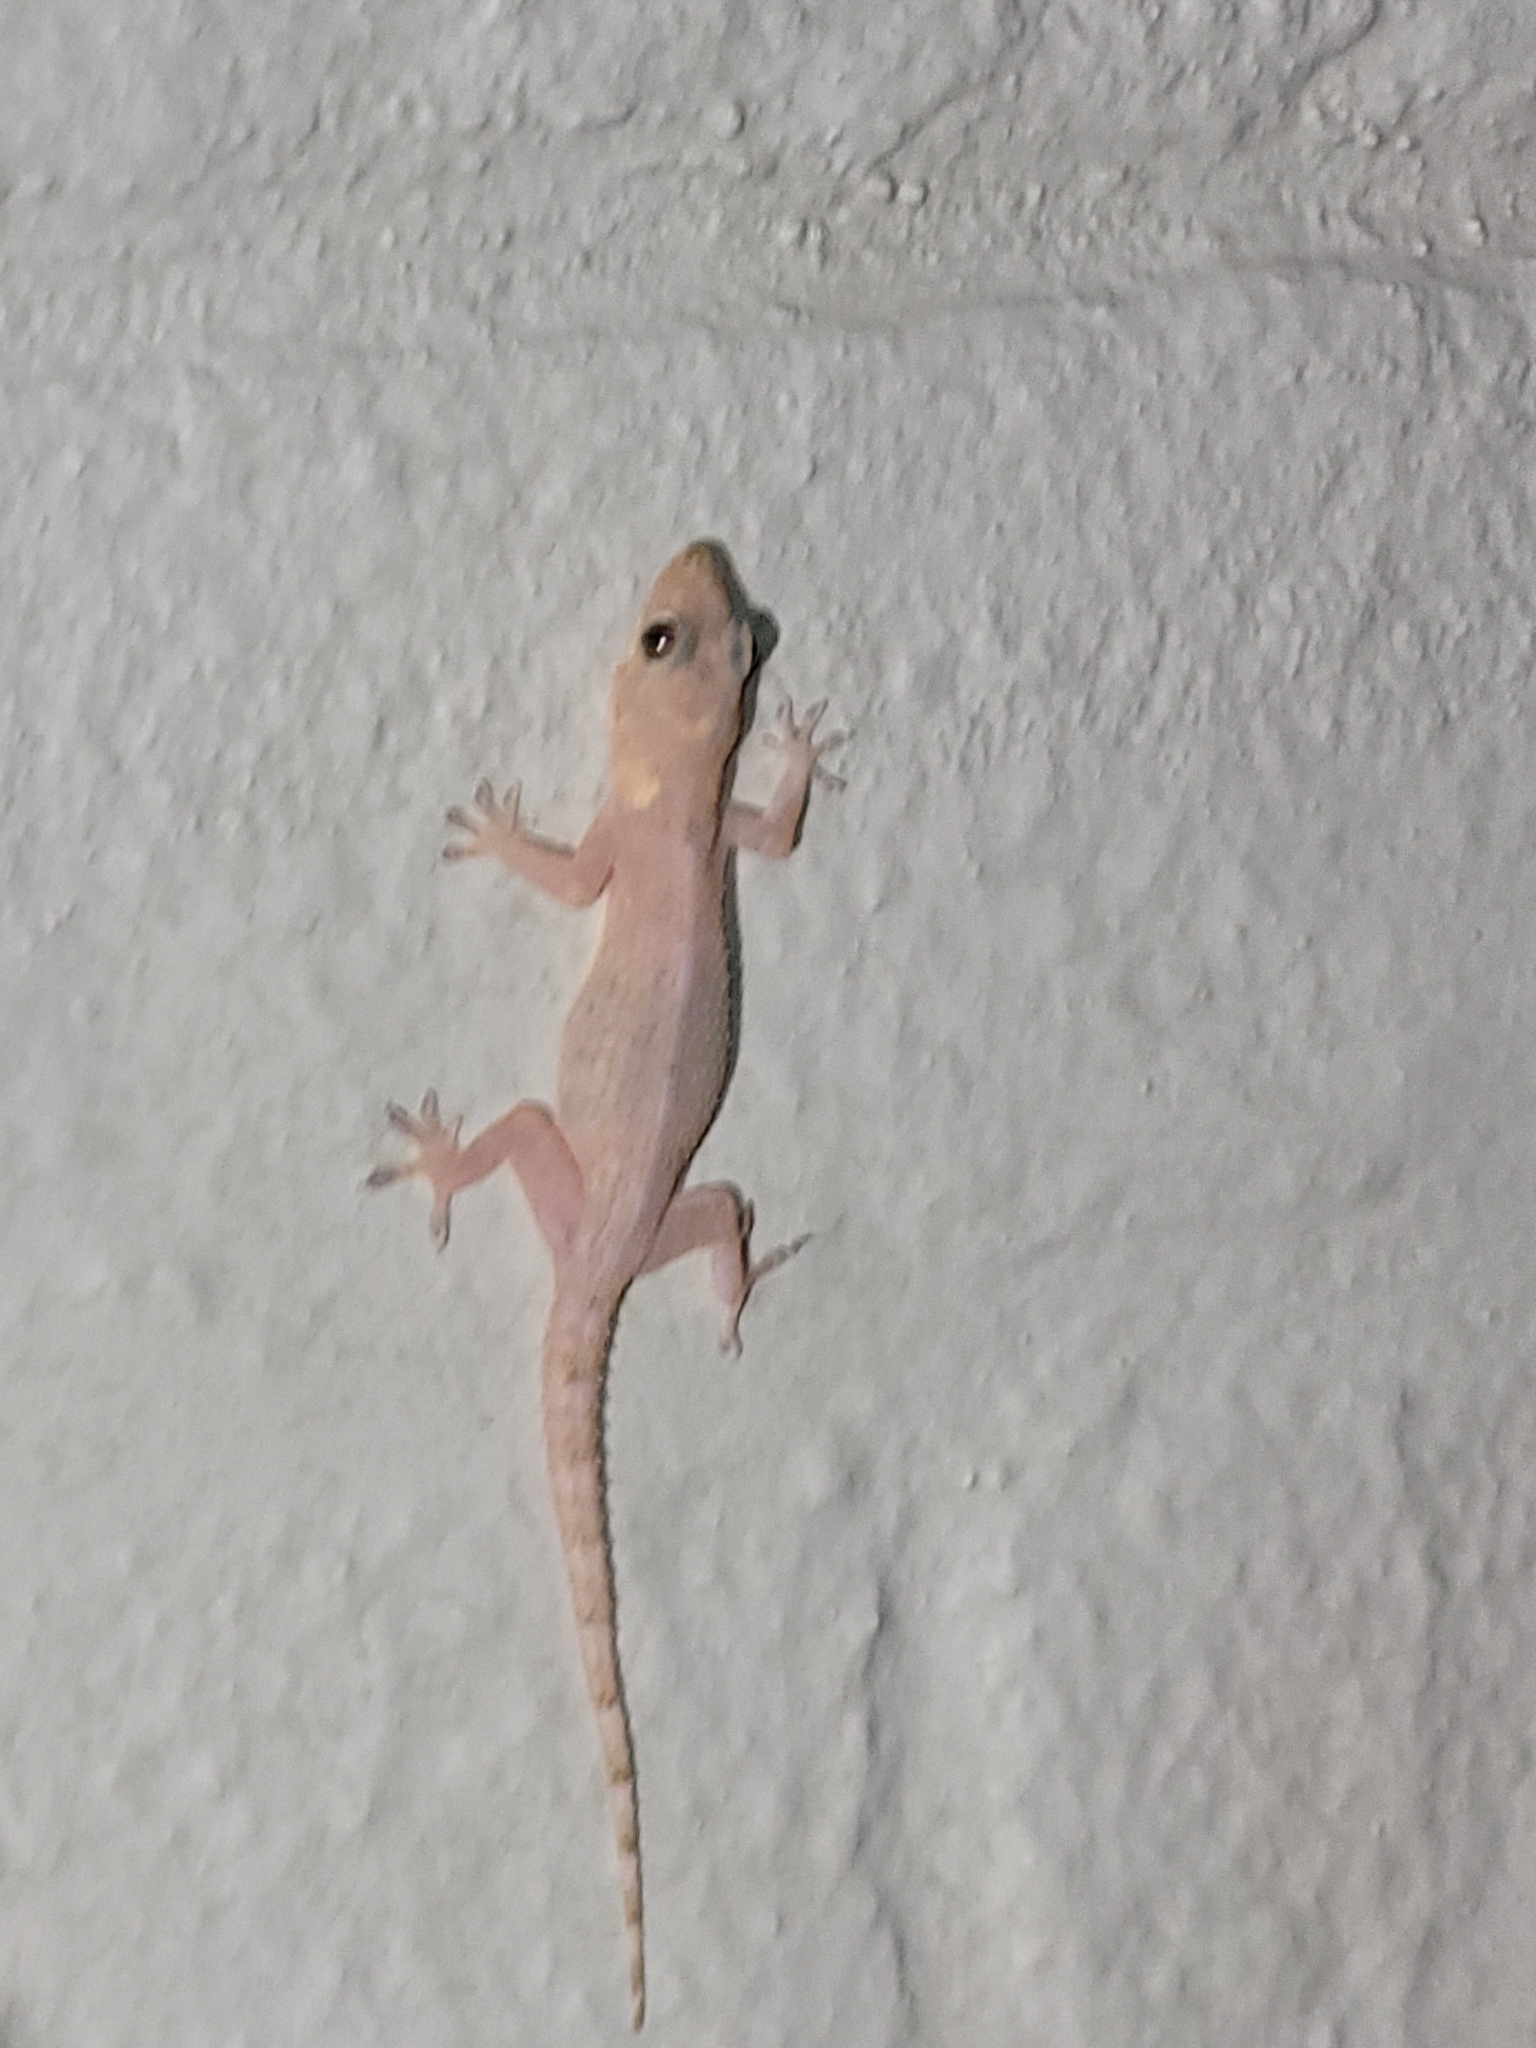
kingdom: Animalia
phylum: Chordata
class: Squamata
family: Gekkonidae
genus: Hemidactylus
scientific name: Hemidactylus mabouia
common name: House gecko
